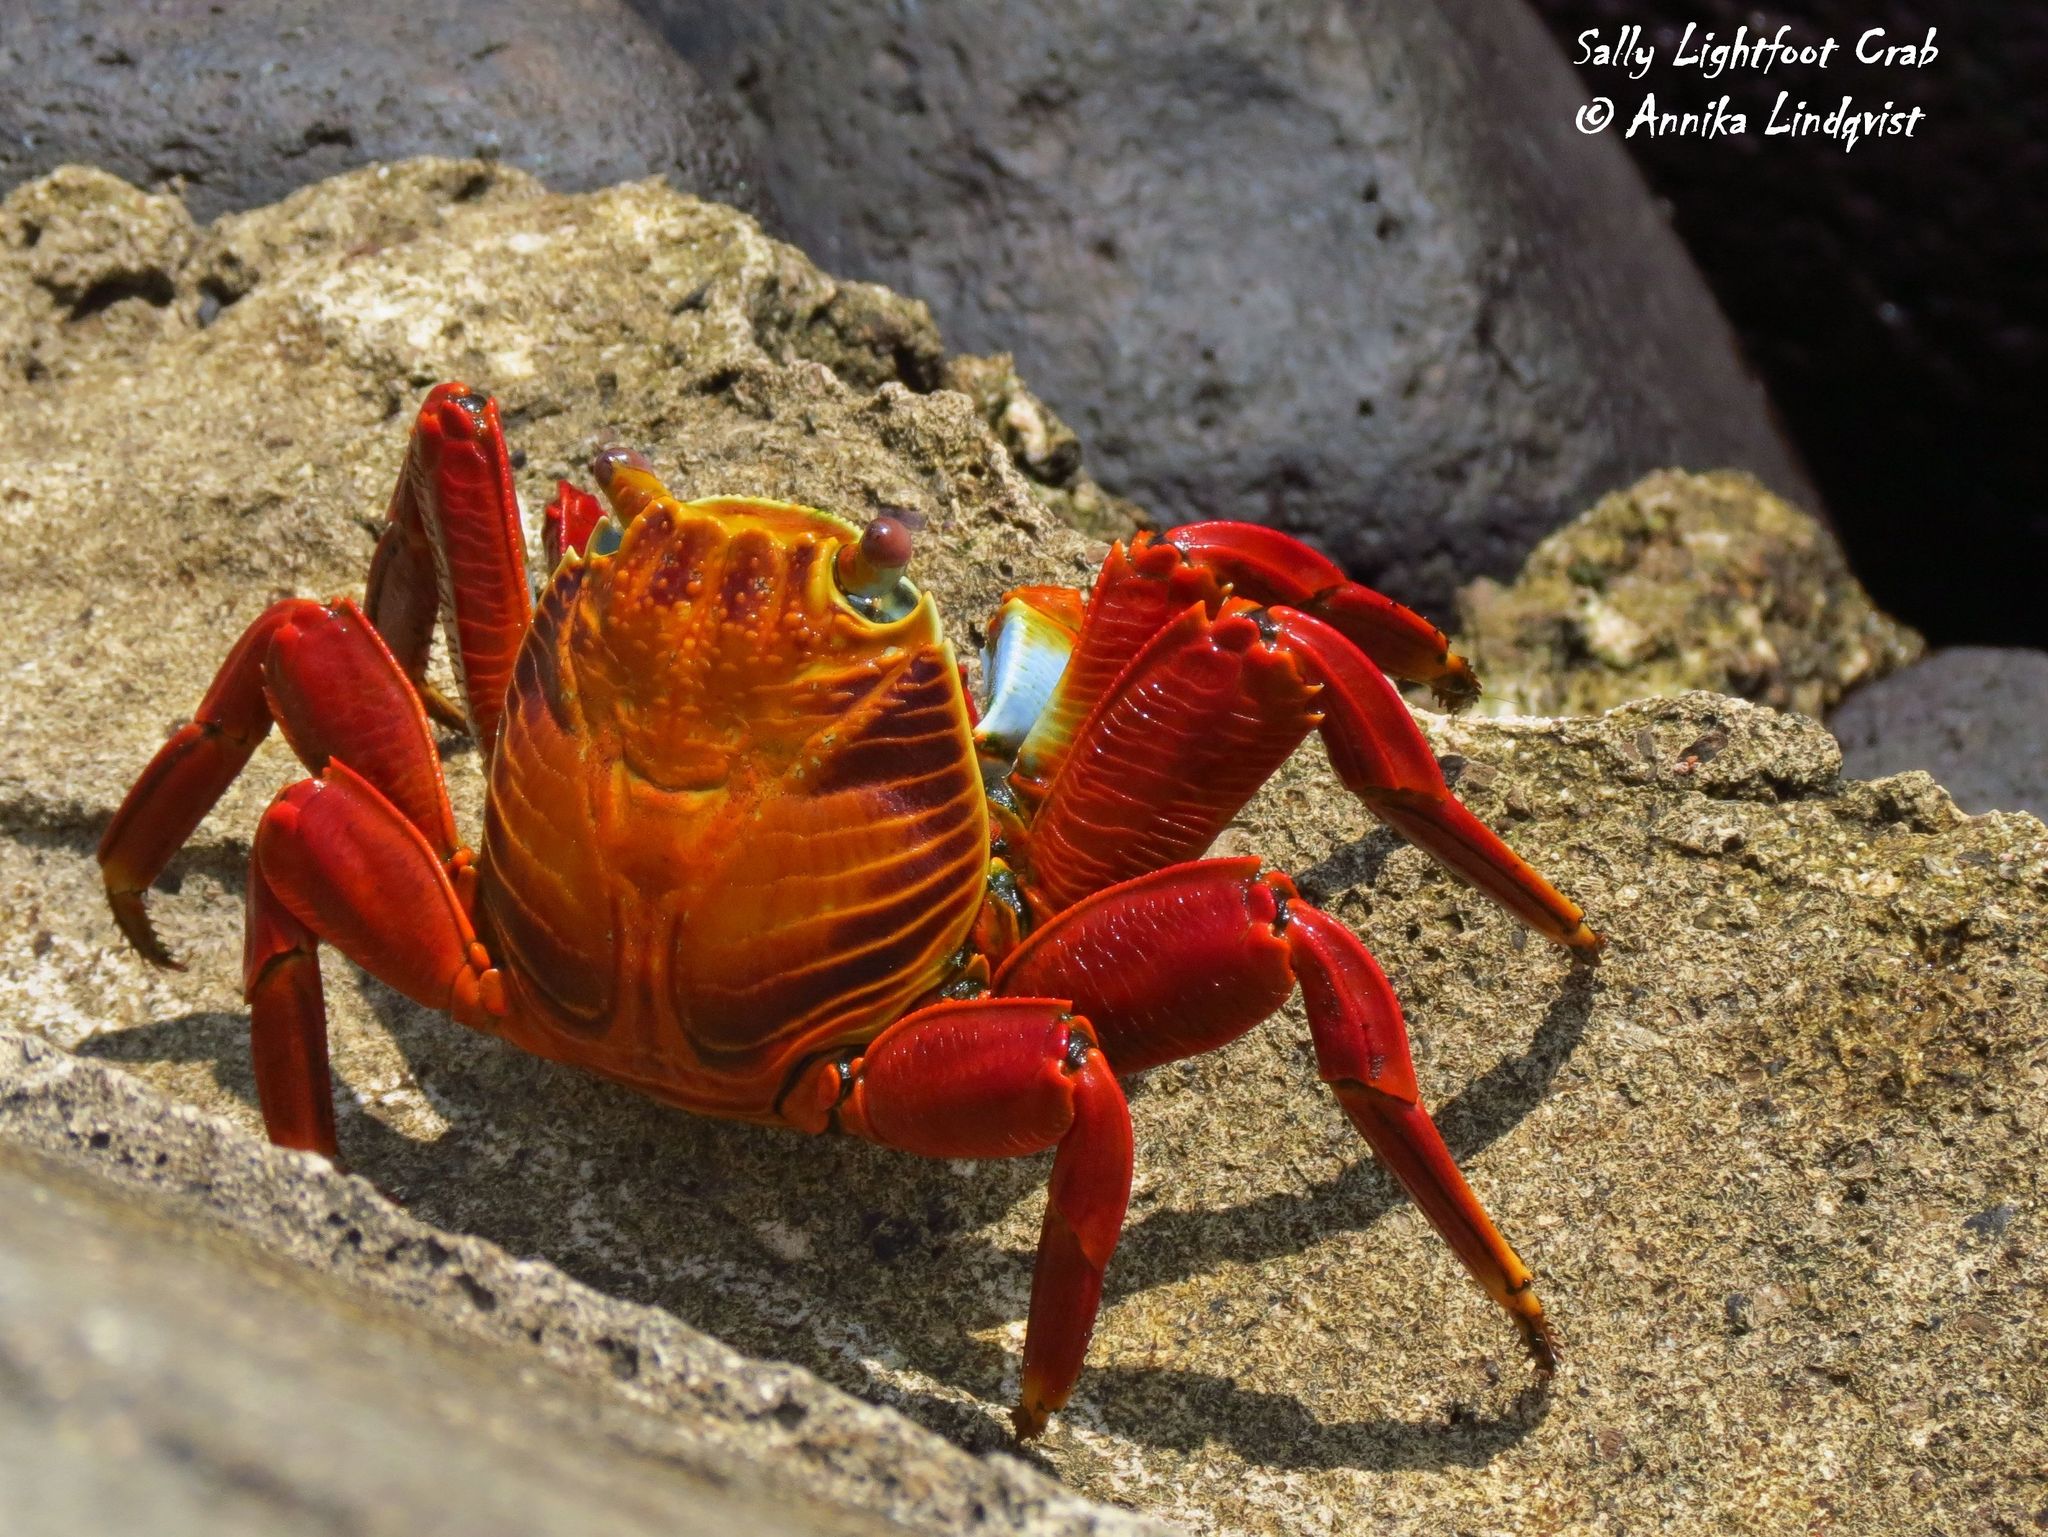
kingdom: Animalia
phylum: Arthropoda
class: Malacostraca
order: Decapoda
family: Grapsidae
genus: Grapsus
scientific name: Grapsus grapsus
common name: Sally lightfoot
